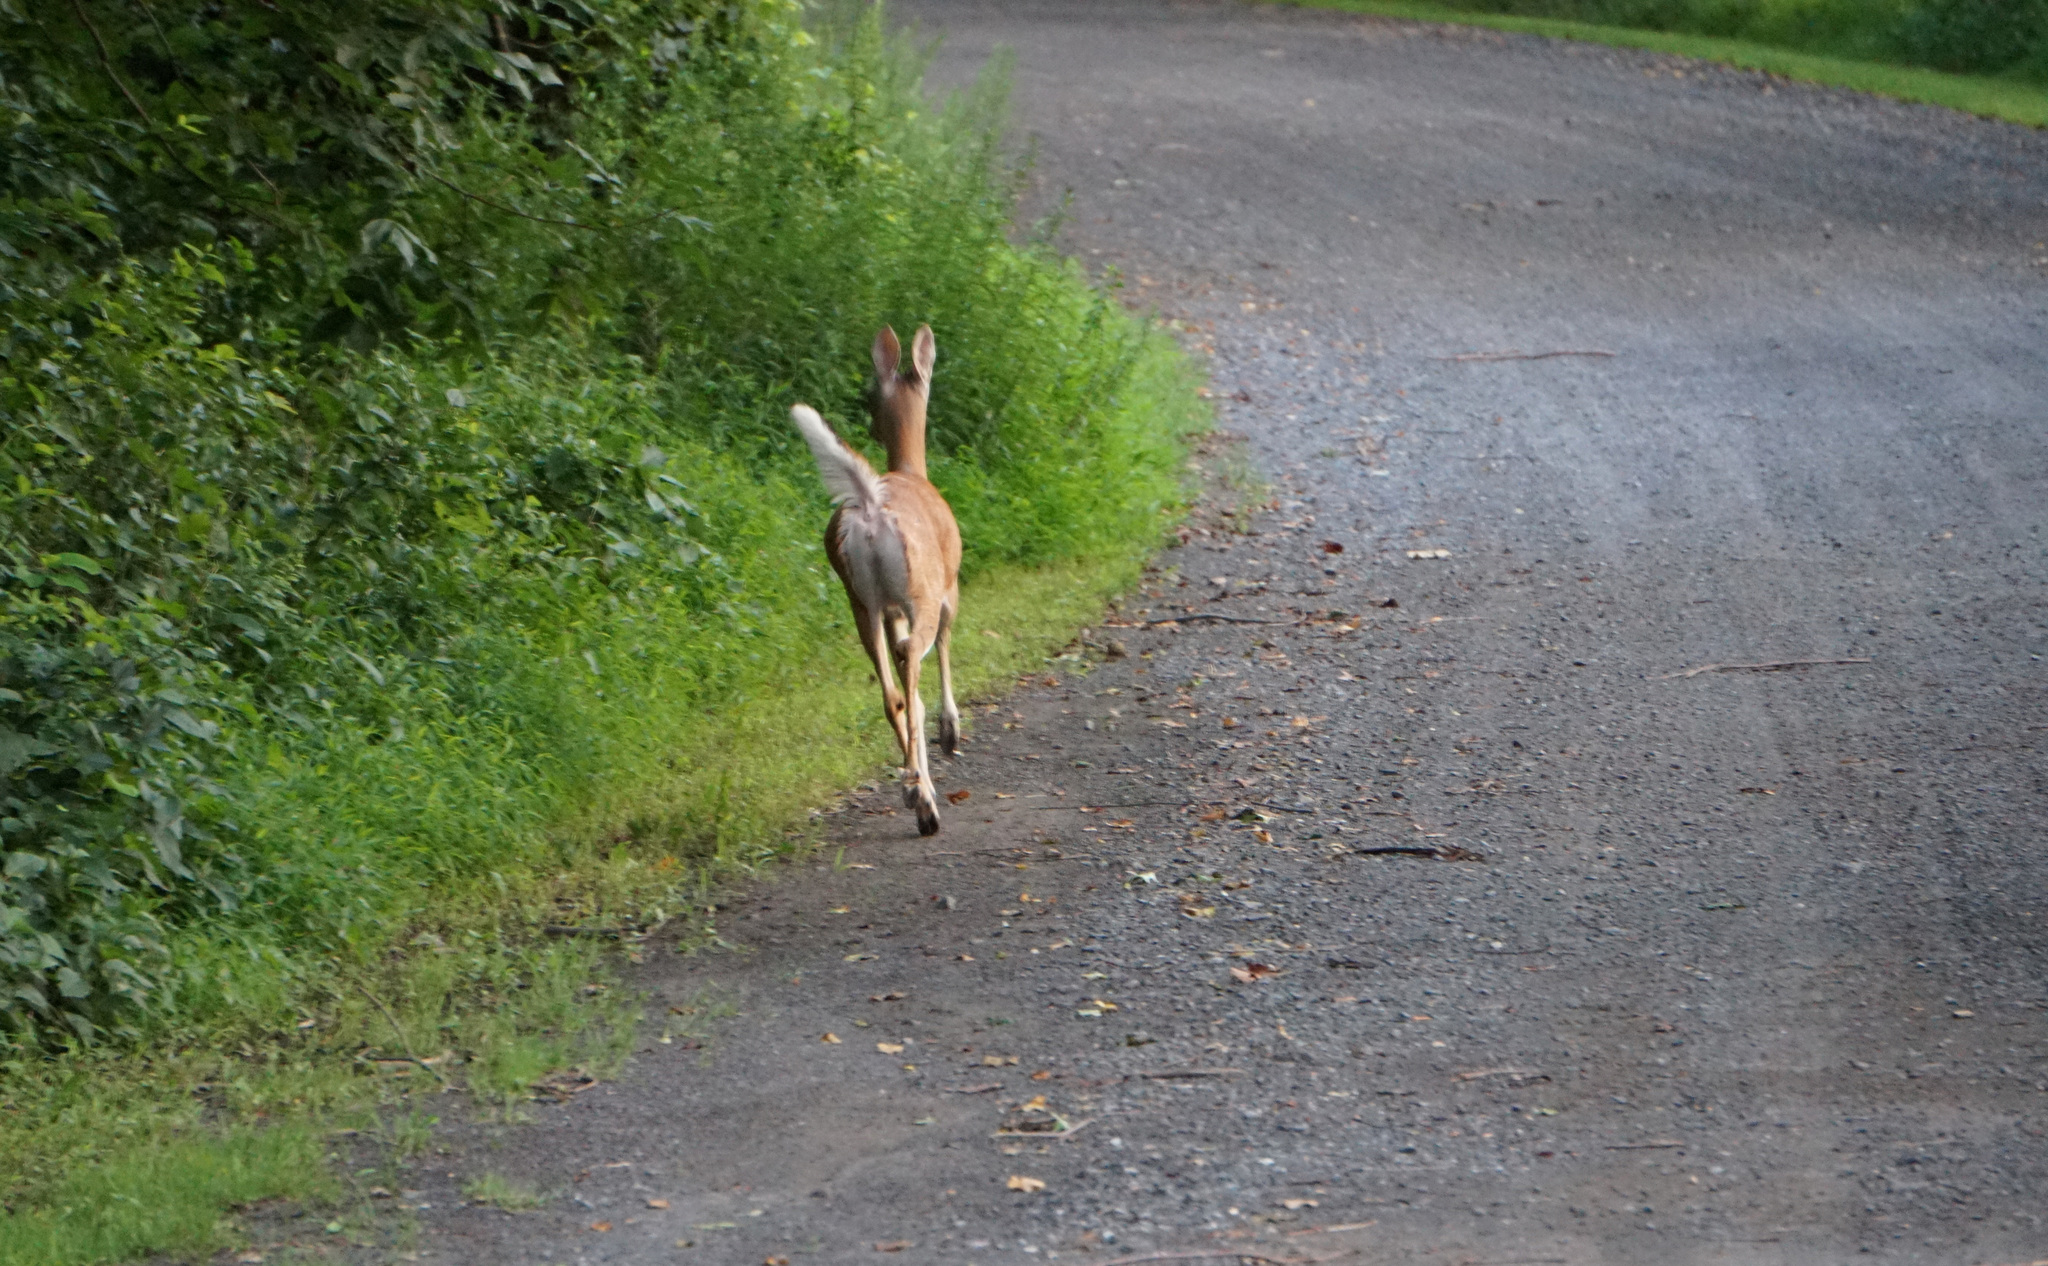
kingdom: Animalia
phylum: Chordata
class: Mammalia
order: Artiodactyla
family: Cervidae
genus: Odocoileus
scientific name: Odocoileus virginianus
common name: White-tailed deer
